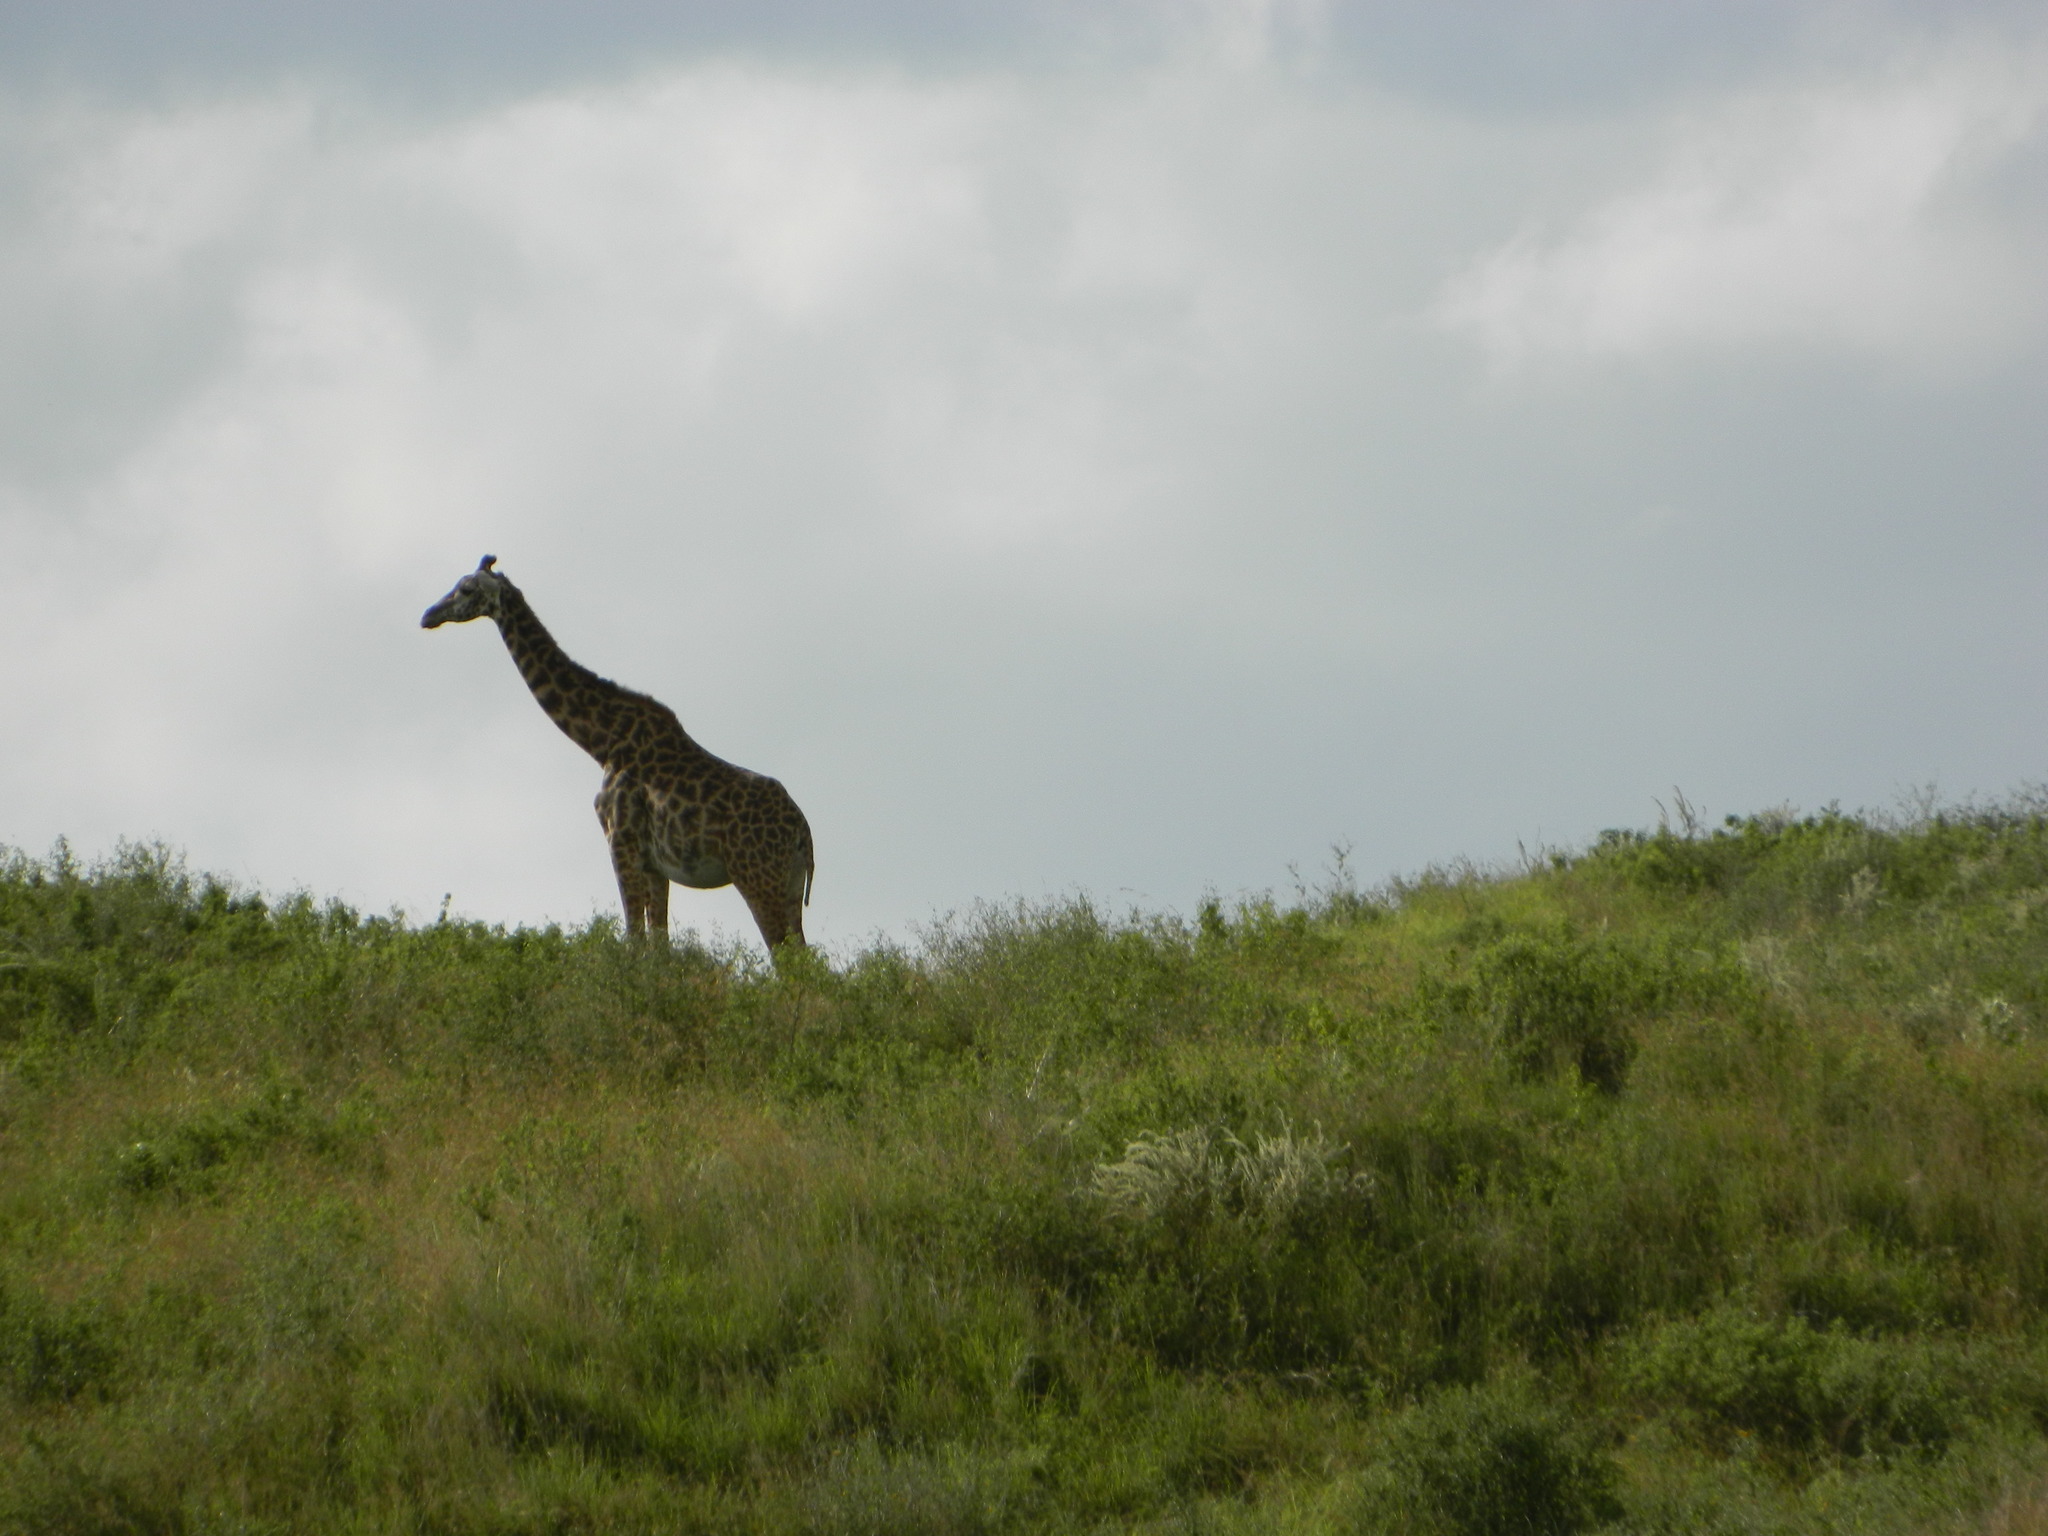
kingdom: Animalia
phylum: Chordata
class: Mammalia
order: Artiodactyla
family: Giraffidae
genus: Giraffa
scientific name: Giraffa tippelskirchi
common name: Masai giraffe
